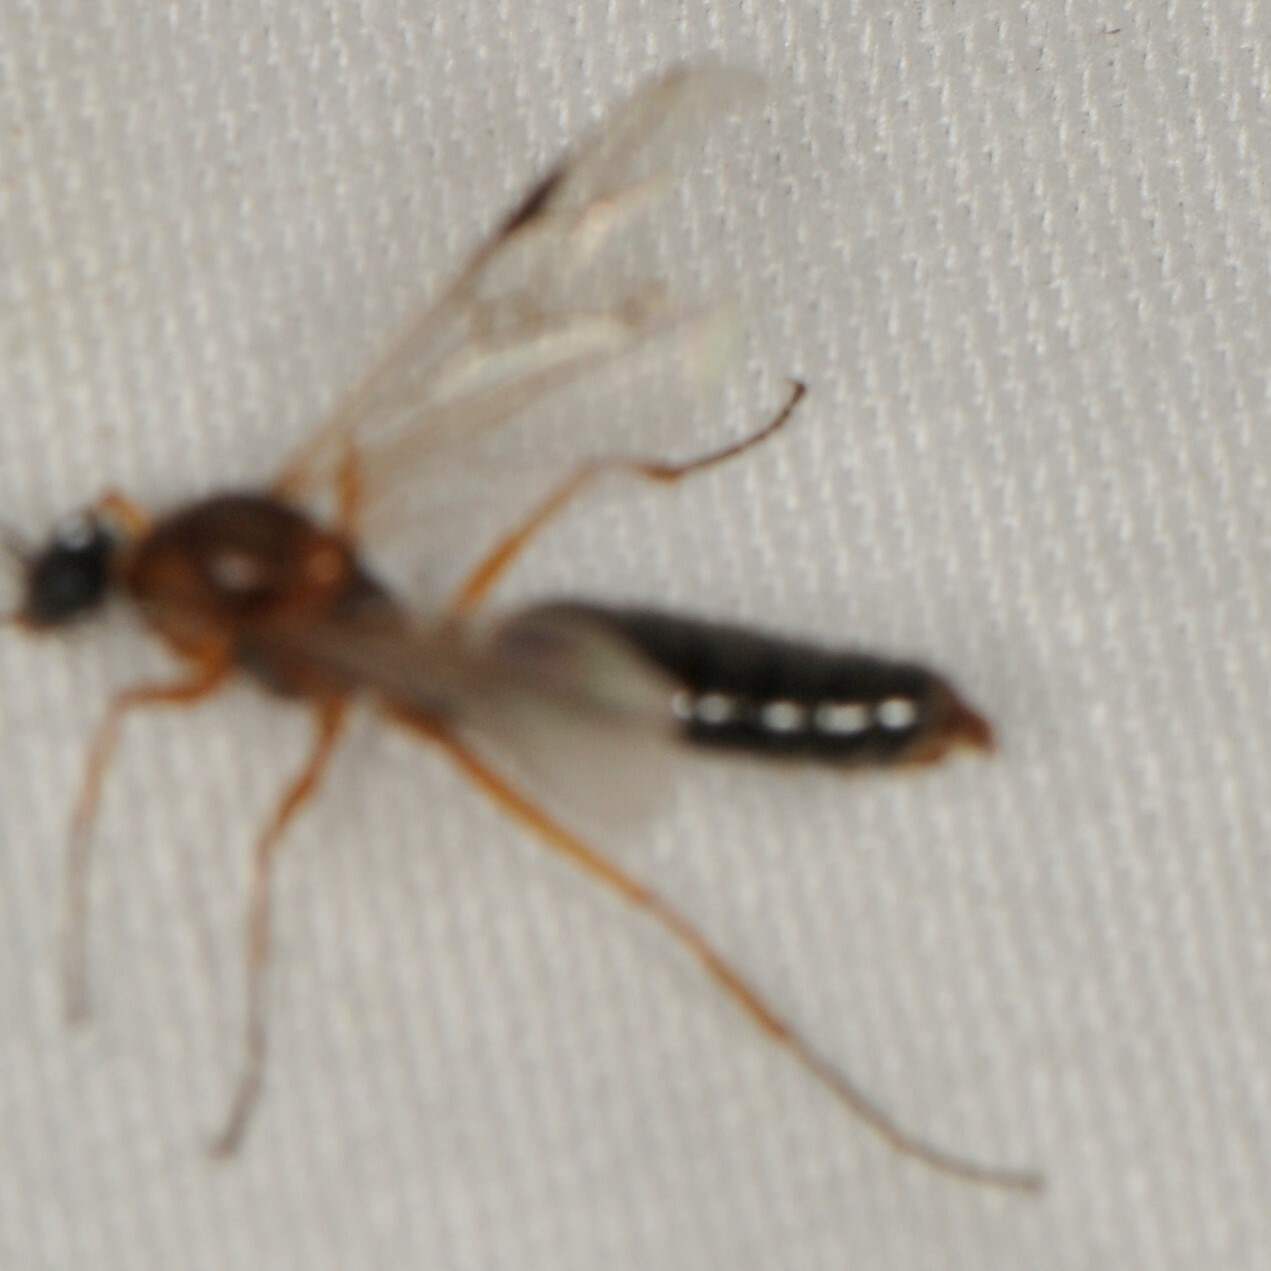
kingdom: Animalia
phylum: Arthropoda
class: Insecta
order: Hymenoptera
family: Formicidae
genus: Formica
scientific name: Formica
